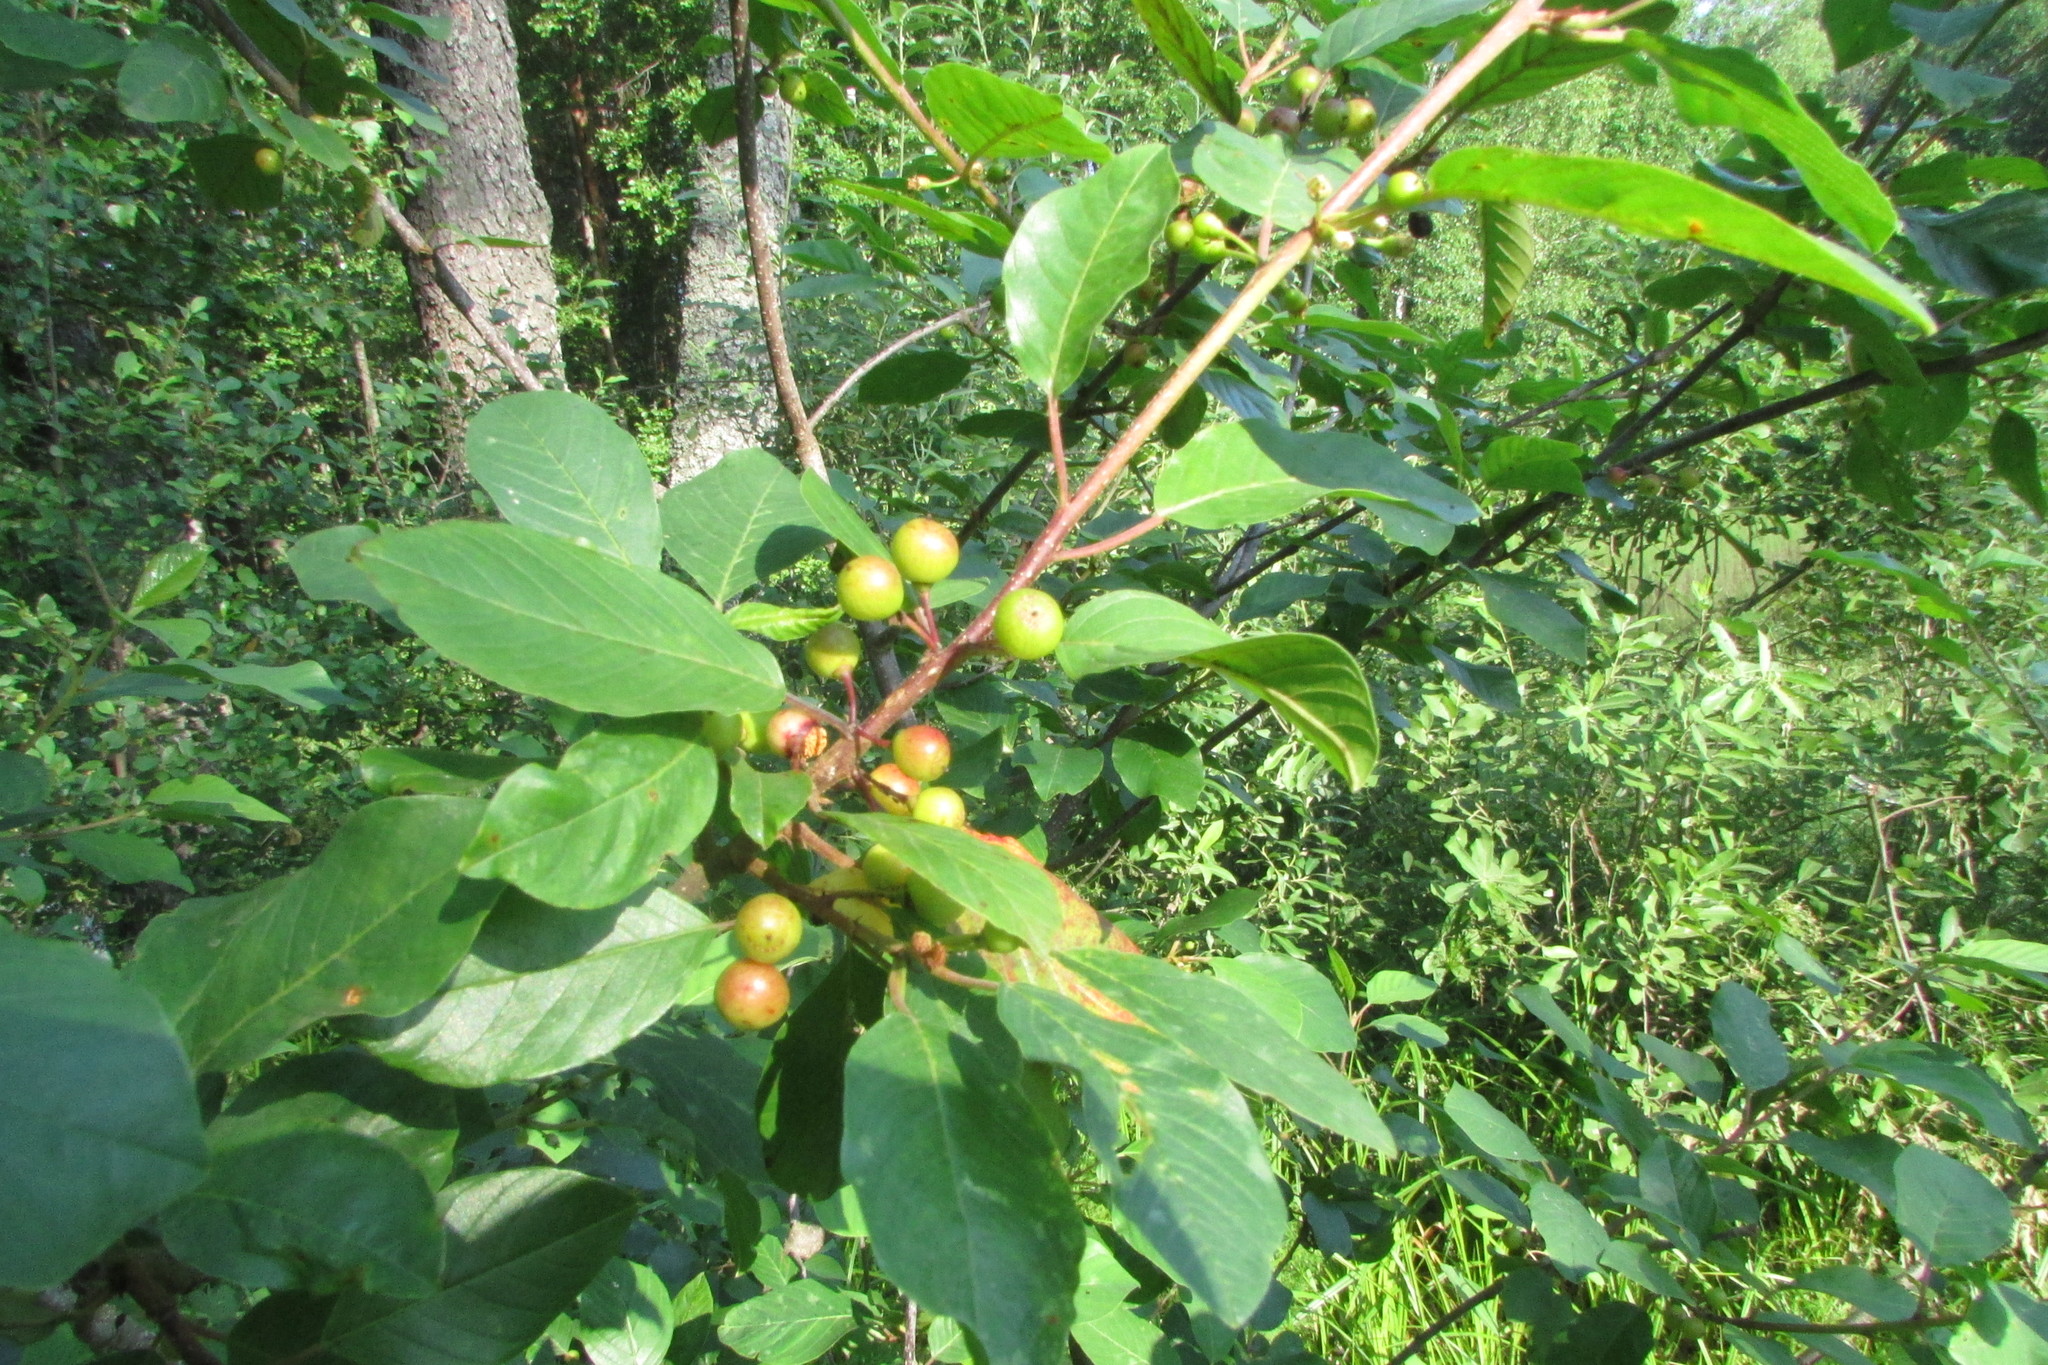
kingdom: Plantae
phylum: Tracheophyta
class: Magnoliopsida
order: Rosales
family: Rhamnaceae
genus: Frangula
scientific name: Frangula alnus
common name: Alder buckthorn
